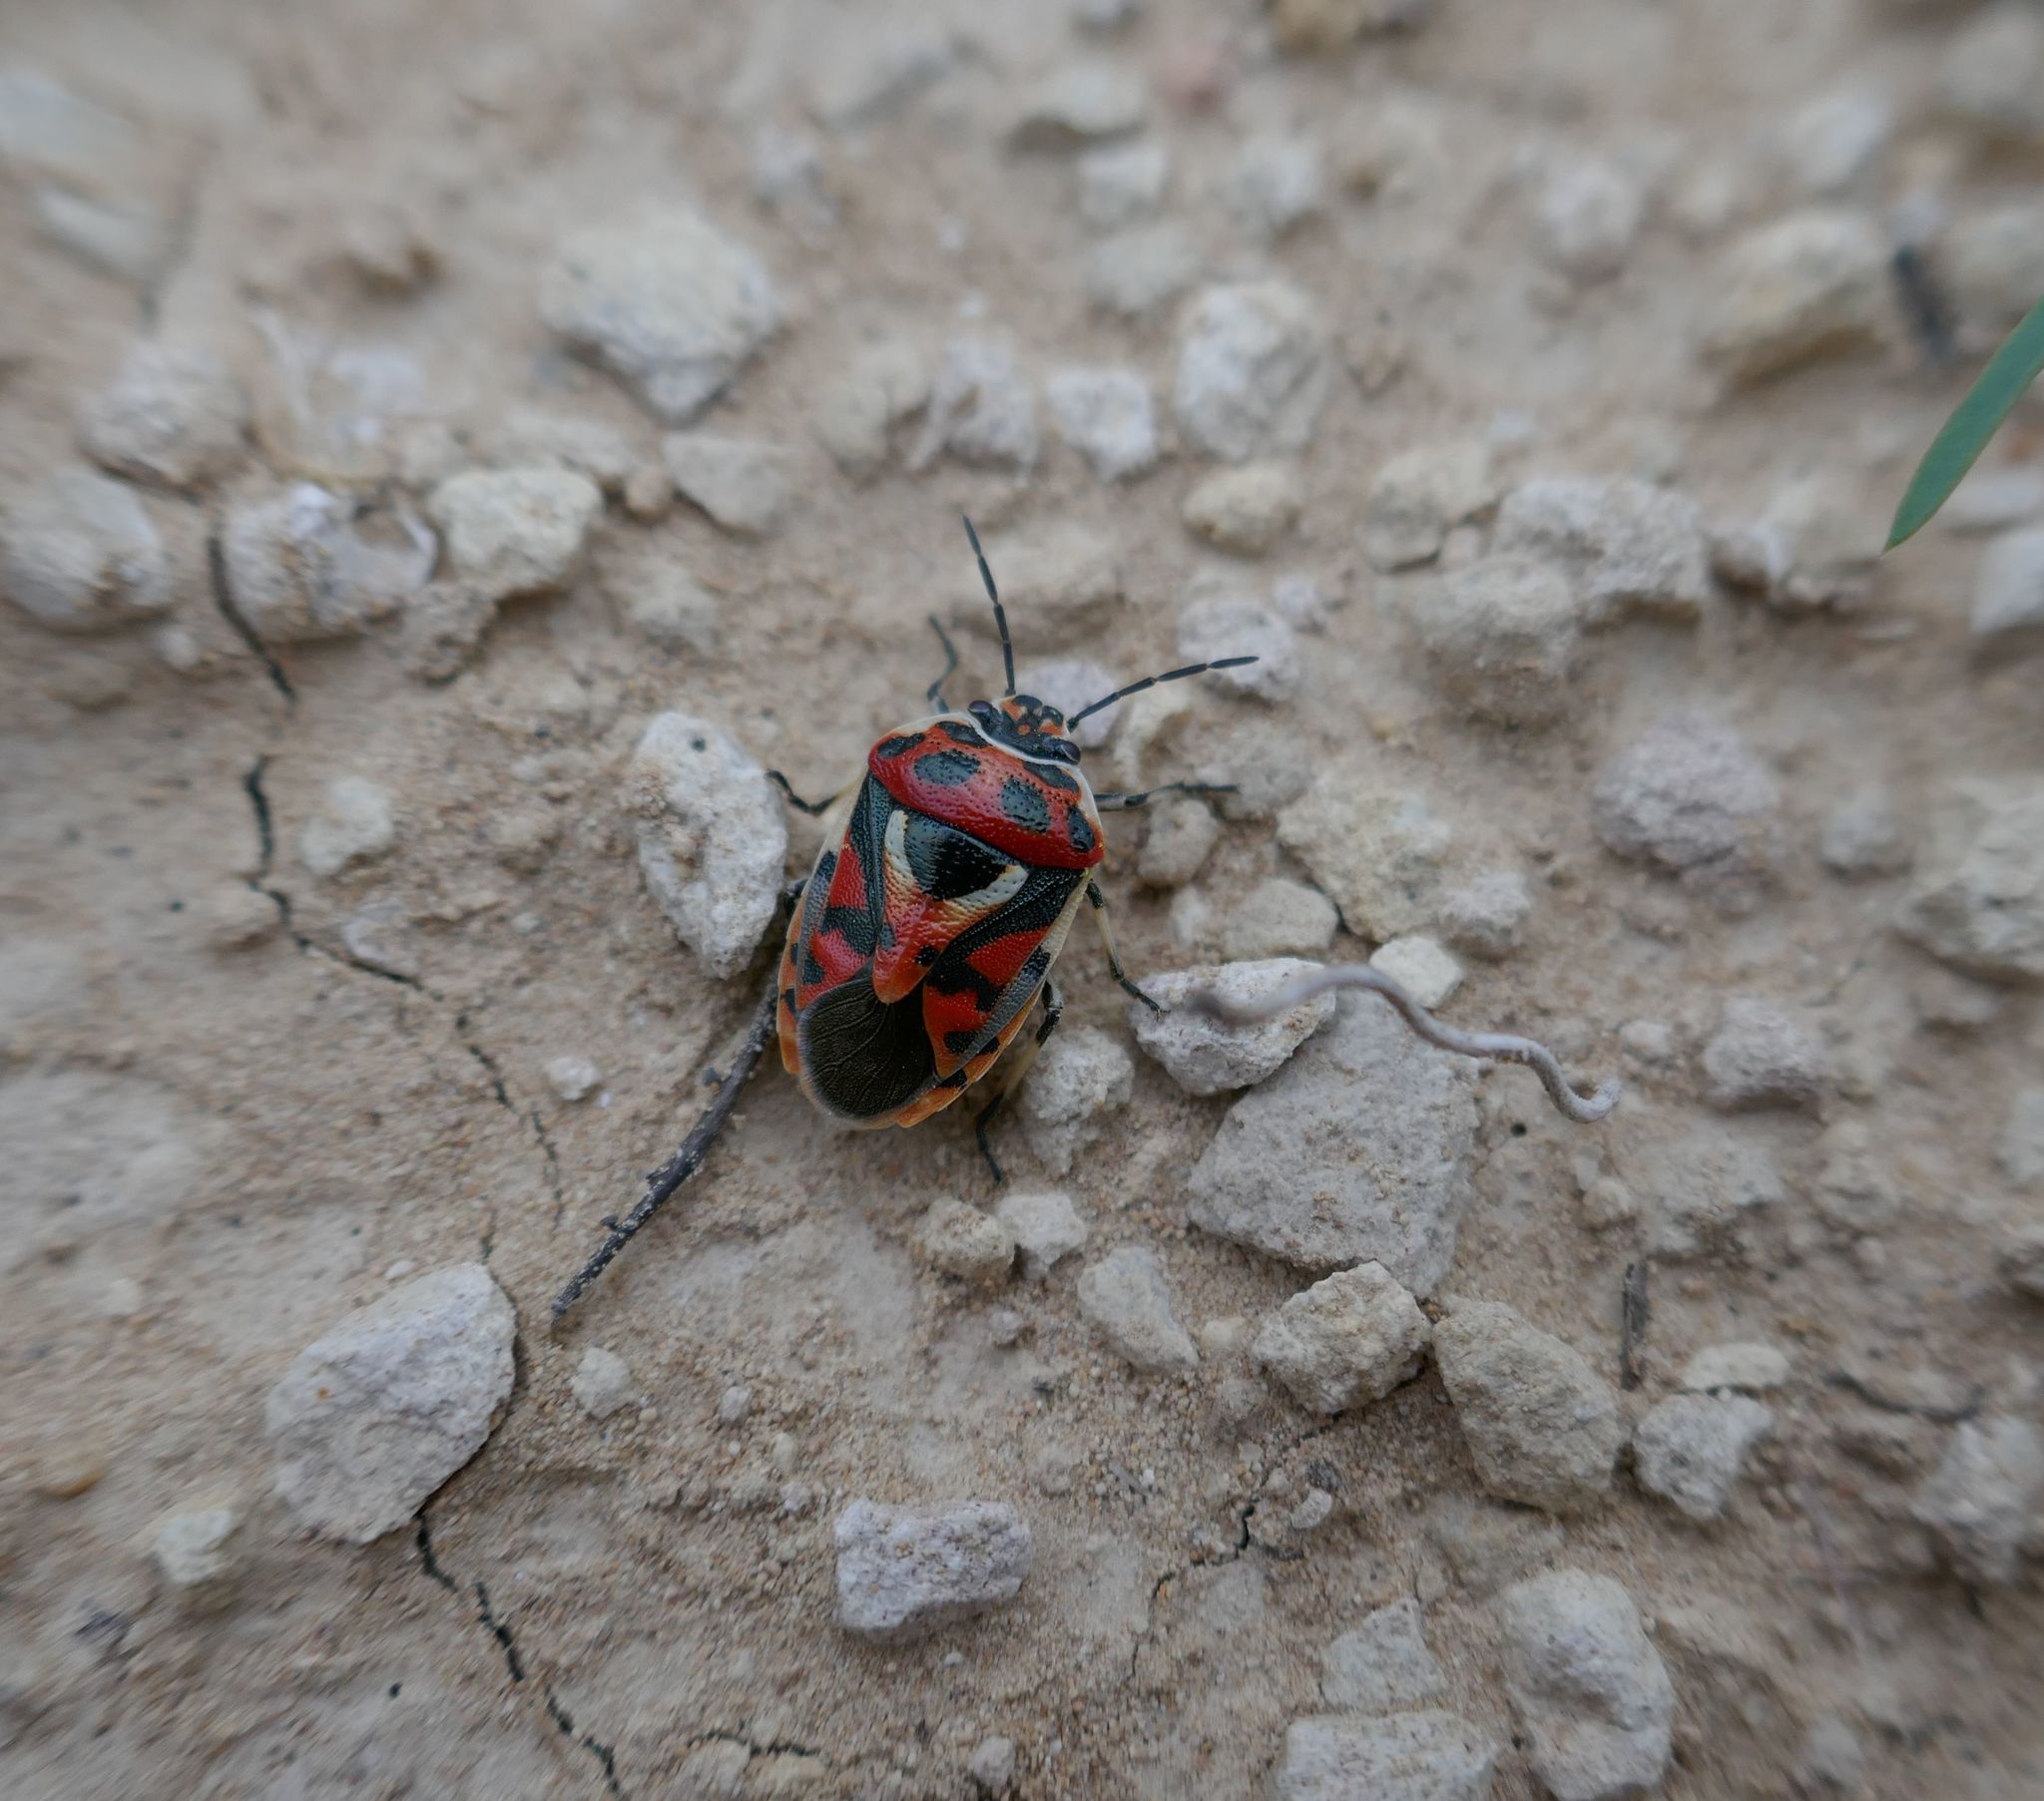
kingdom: Animalia
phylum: Arthropoda
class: Insecta
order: Hemiptera
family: Pentatomidae
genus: Eurydema
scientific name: Eurydema ornata
